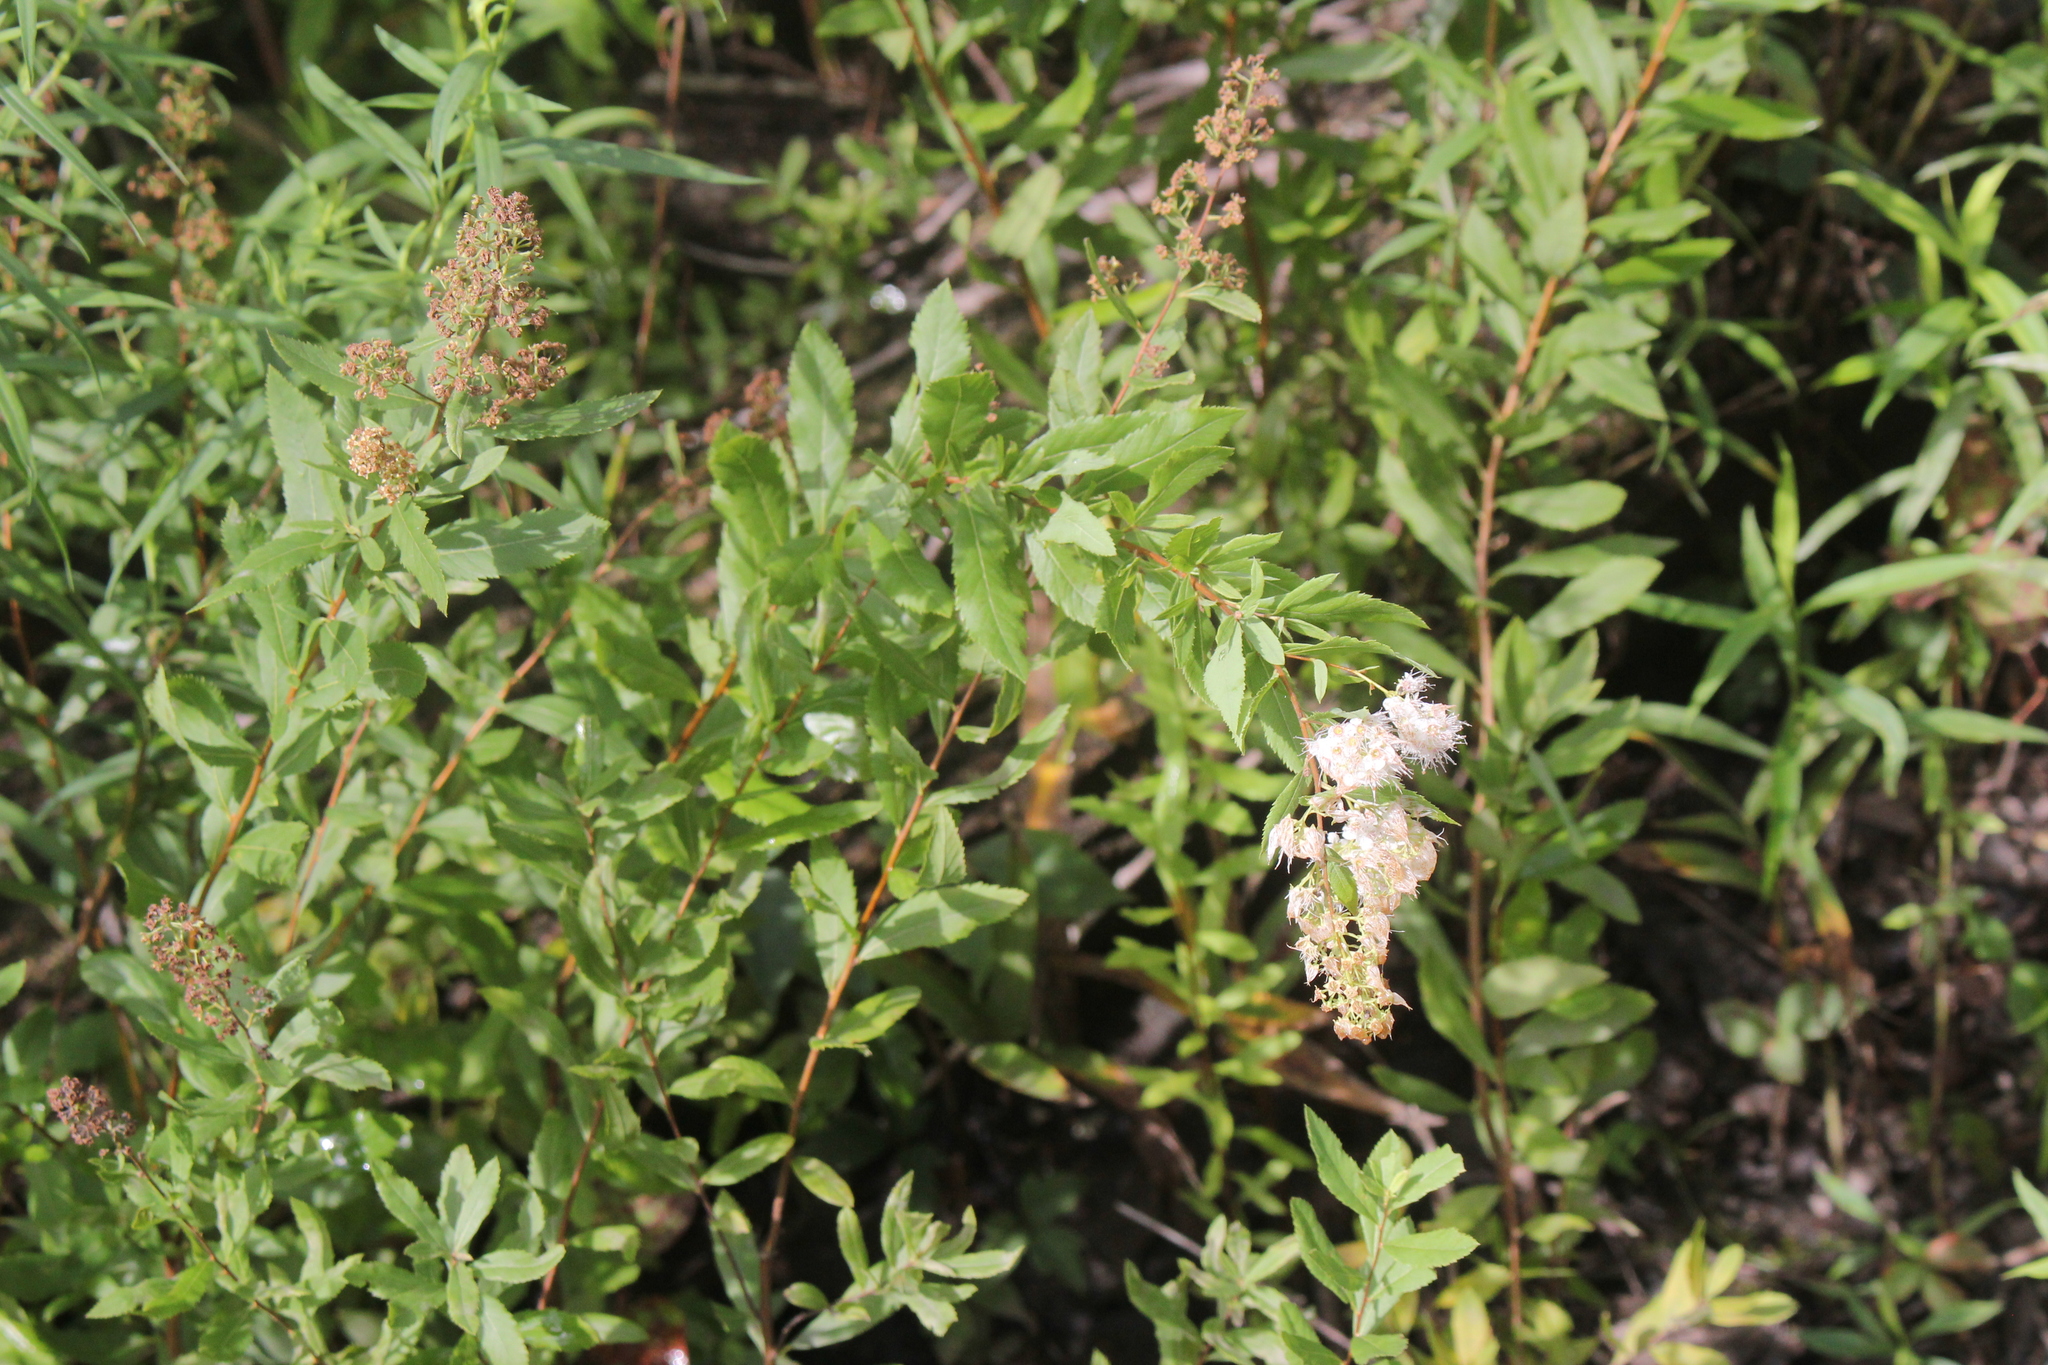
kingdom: Plantae
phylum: Tracheophyta
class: Magnoliopsida
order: Rosales
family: Rosaceae
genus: Spiraea
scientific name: Spiraea alba
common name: Pale bridewort
